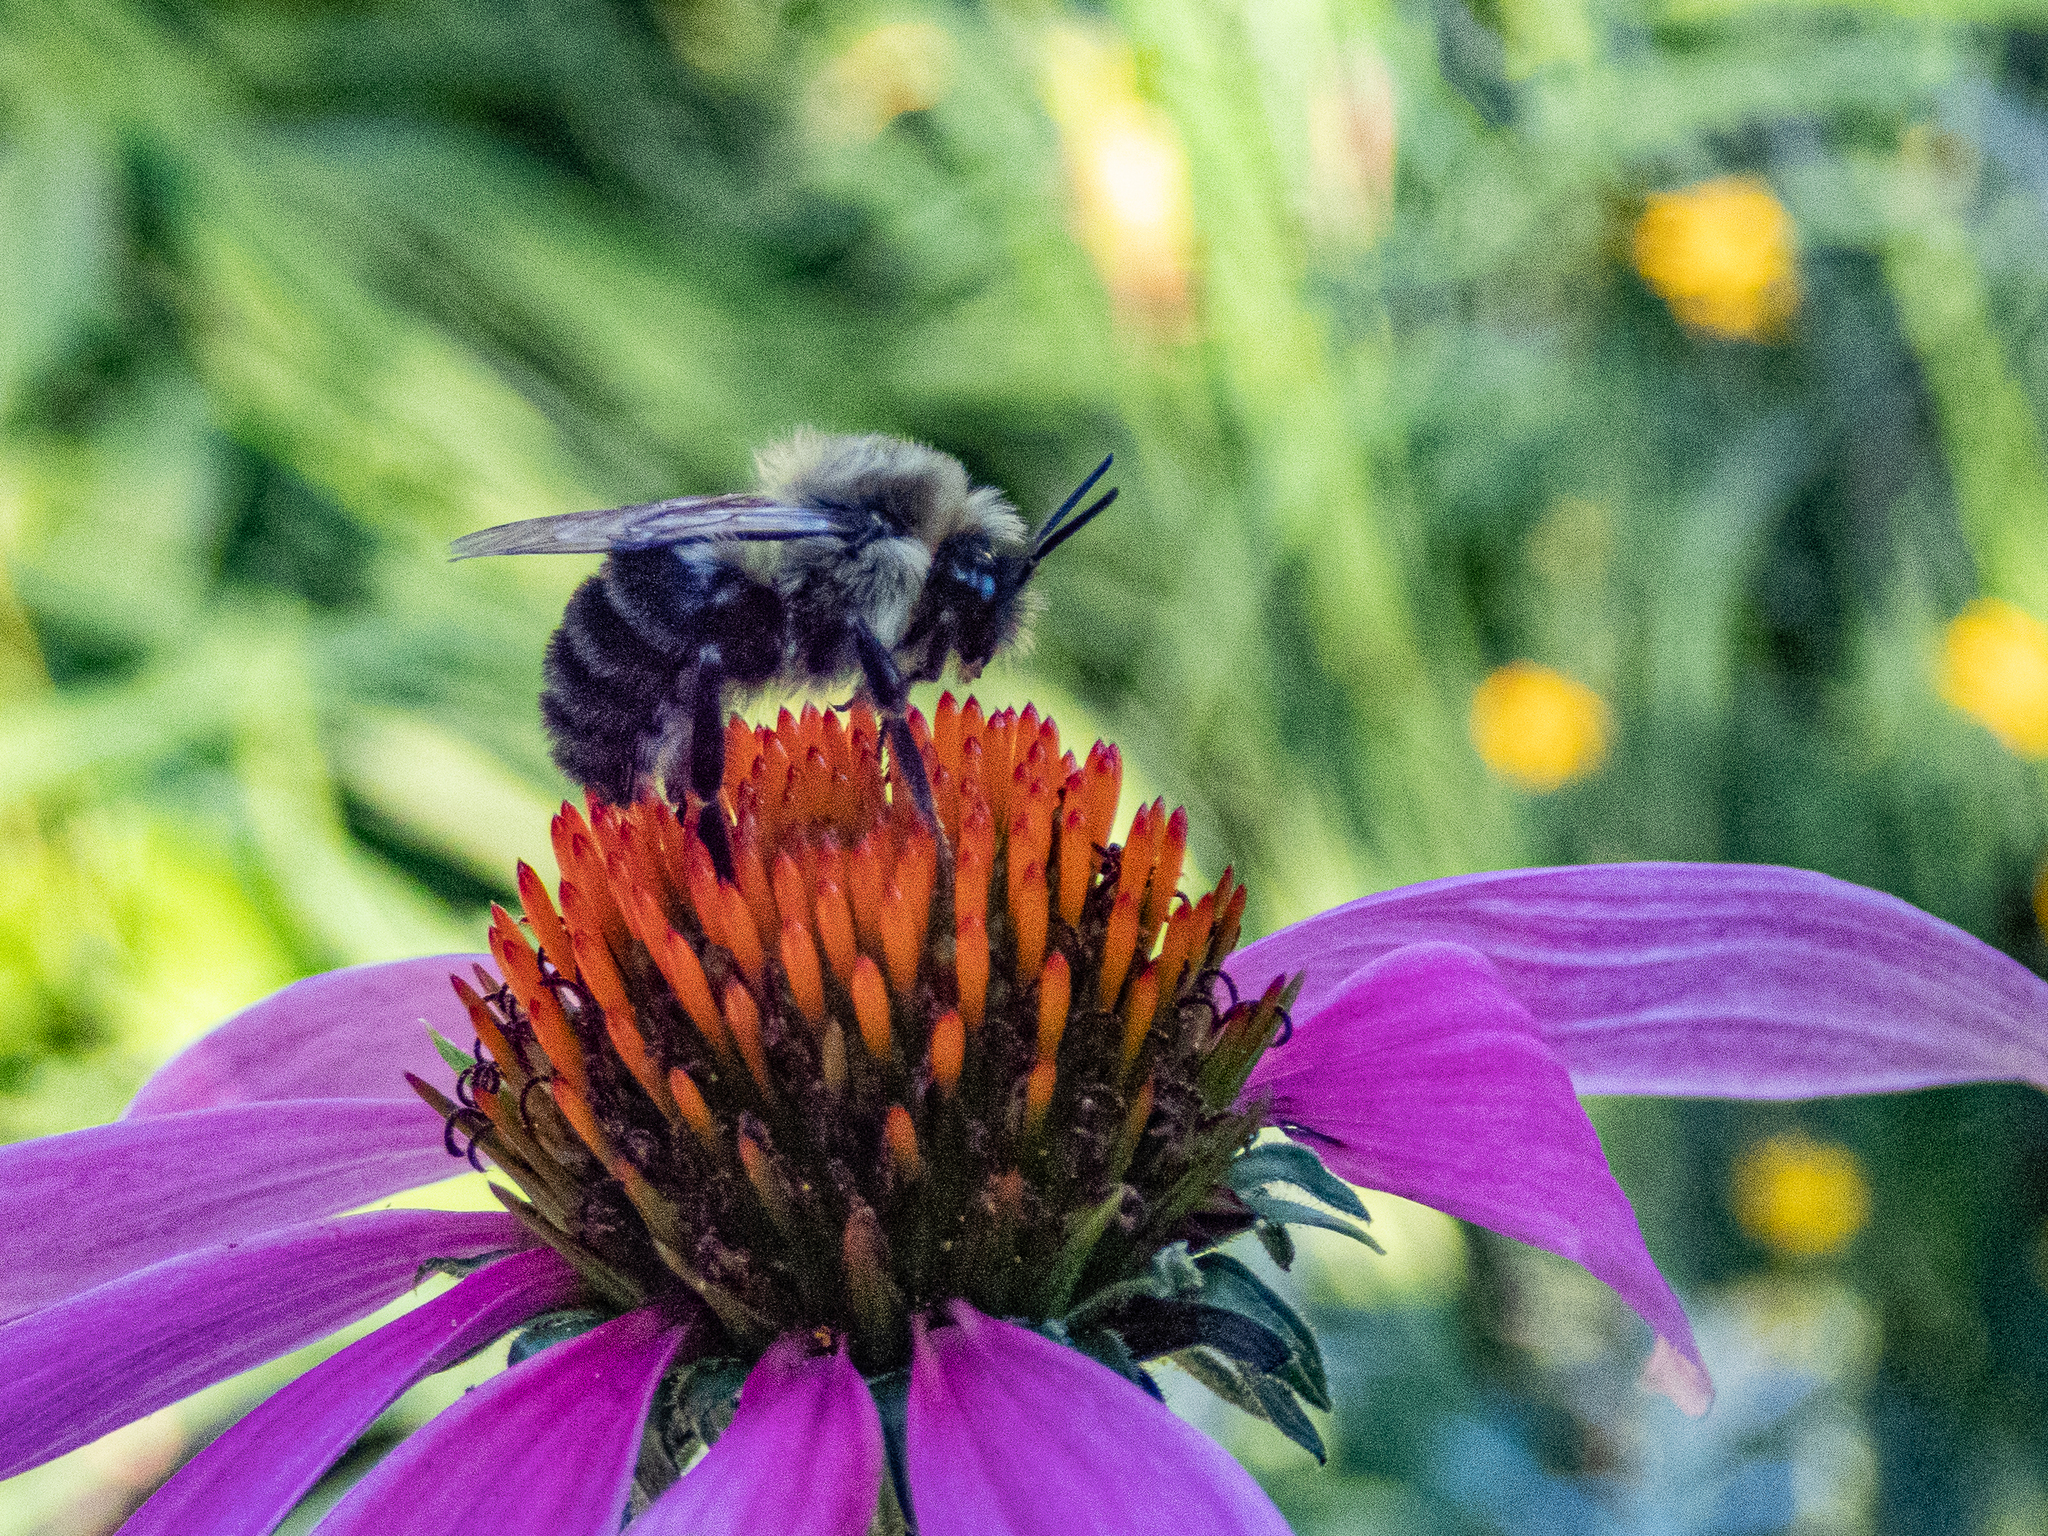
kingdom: Animalia
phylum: Arthropoda
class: Insecta
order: Hymenoptera
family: Apidae
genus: Bombus
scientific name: Bombus impatiens
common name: Common eastern bumble bee
